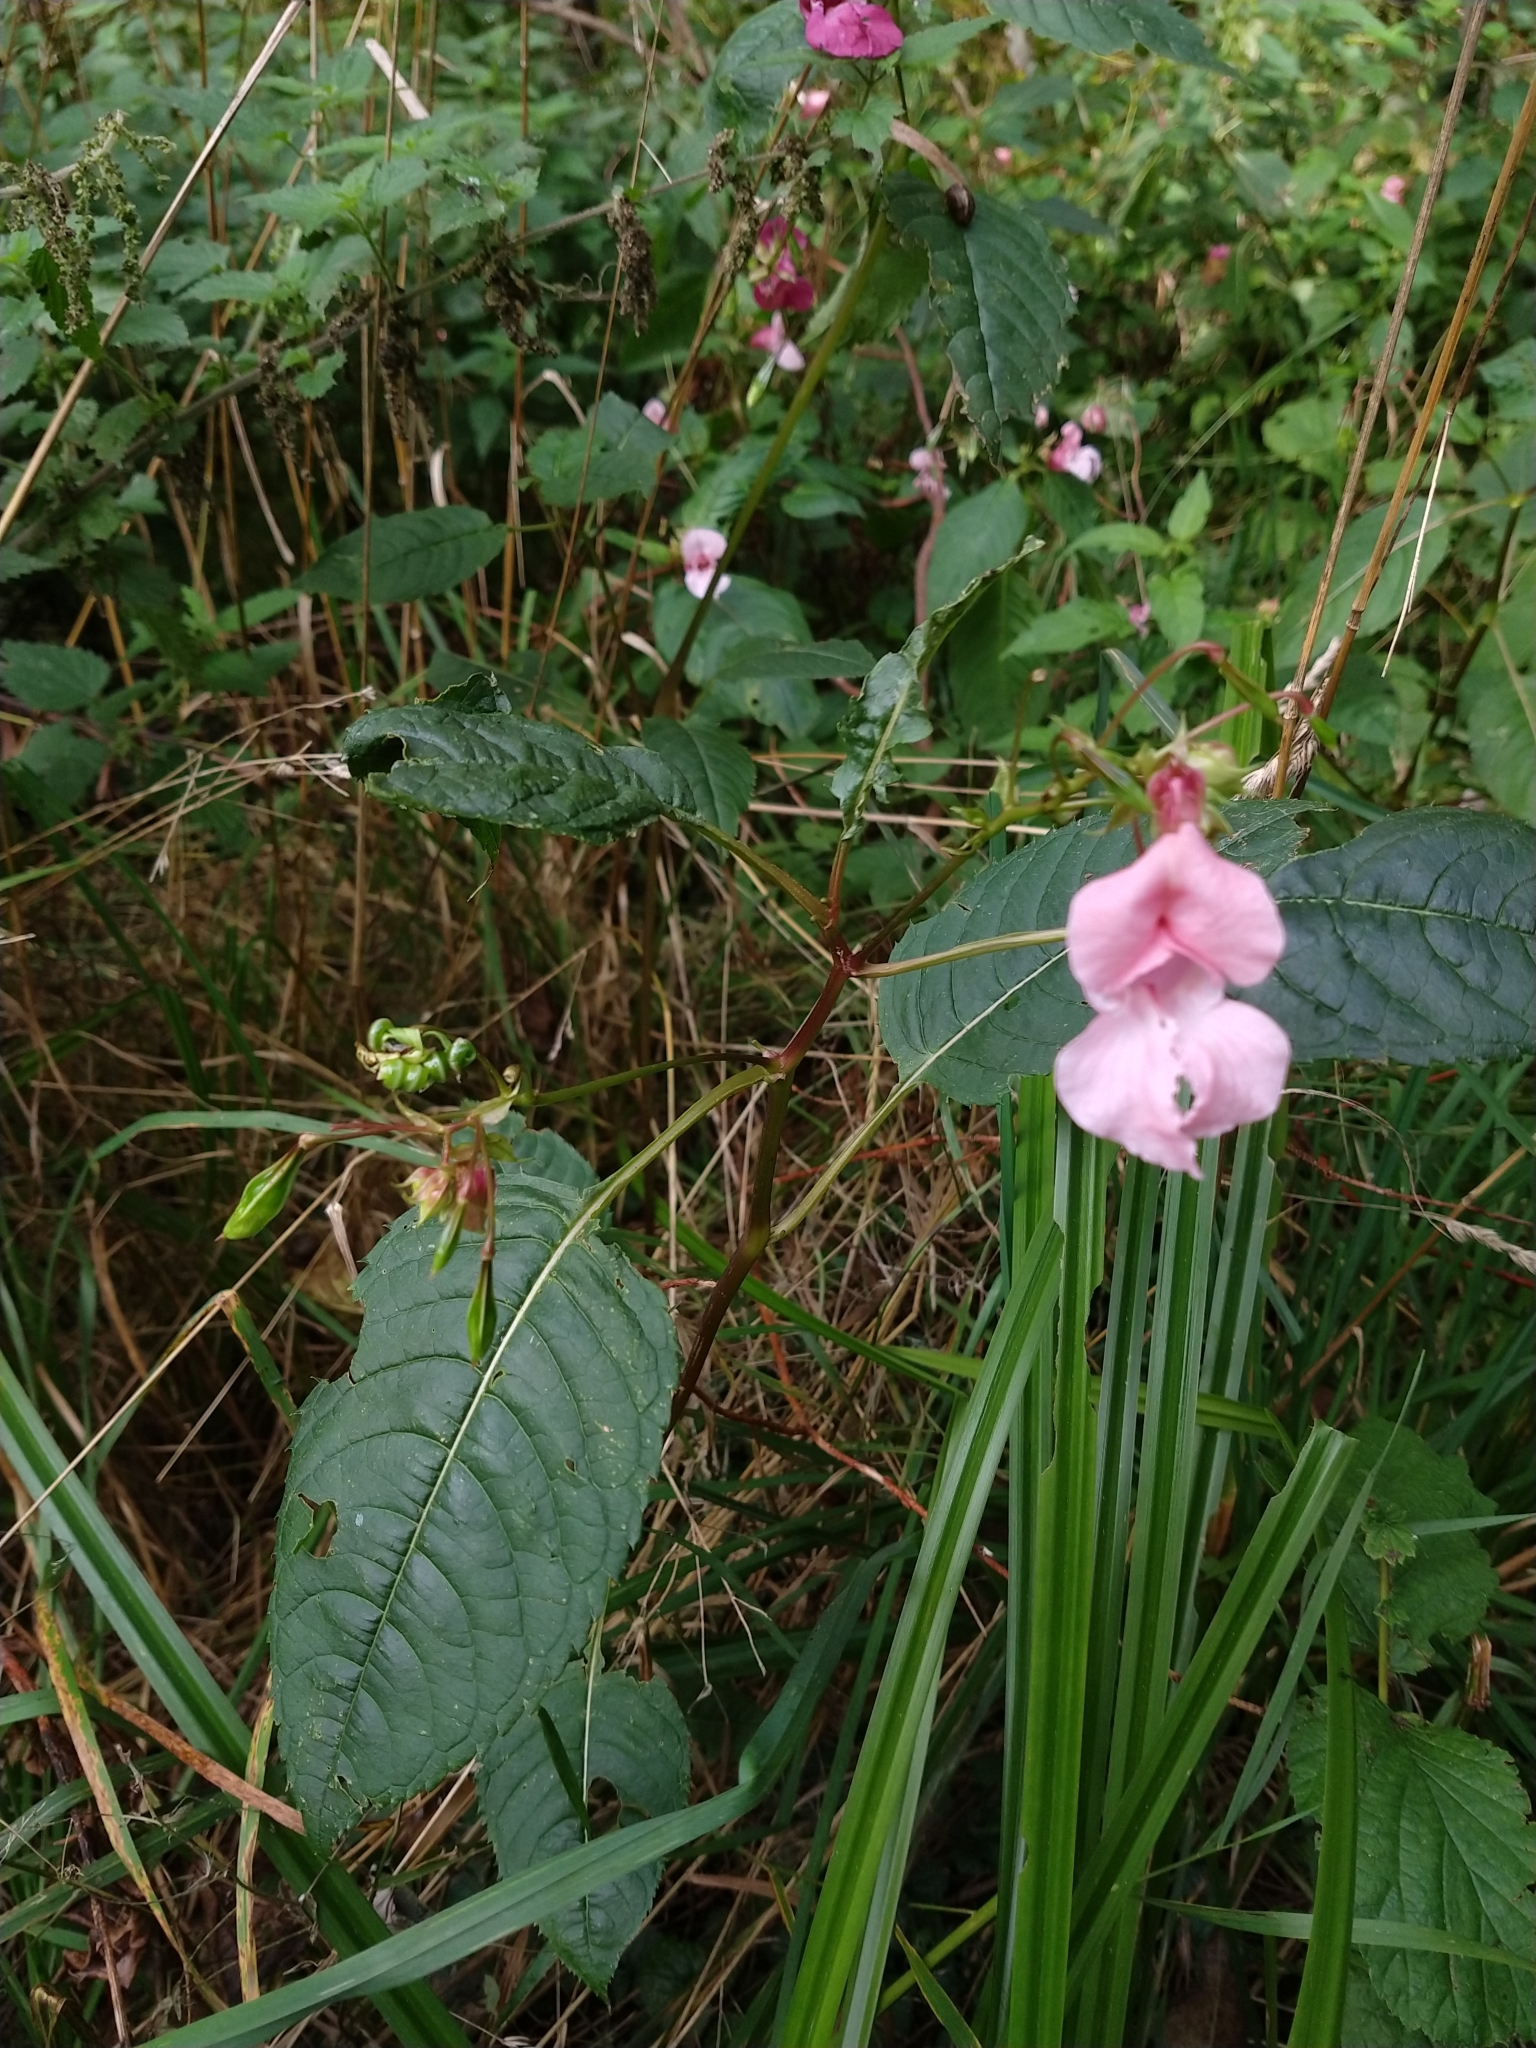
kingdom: Plantae
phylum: Tracheophyta
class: Magnoliopsida
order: Ericales
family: Balsaminaceae
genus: Impatiens
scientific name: Impatiens glandulifera
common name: Himalayan balsam
